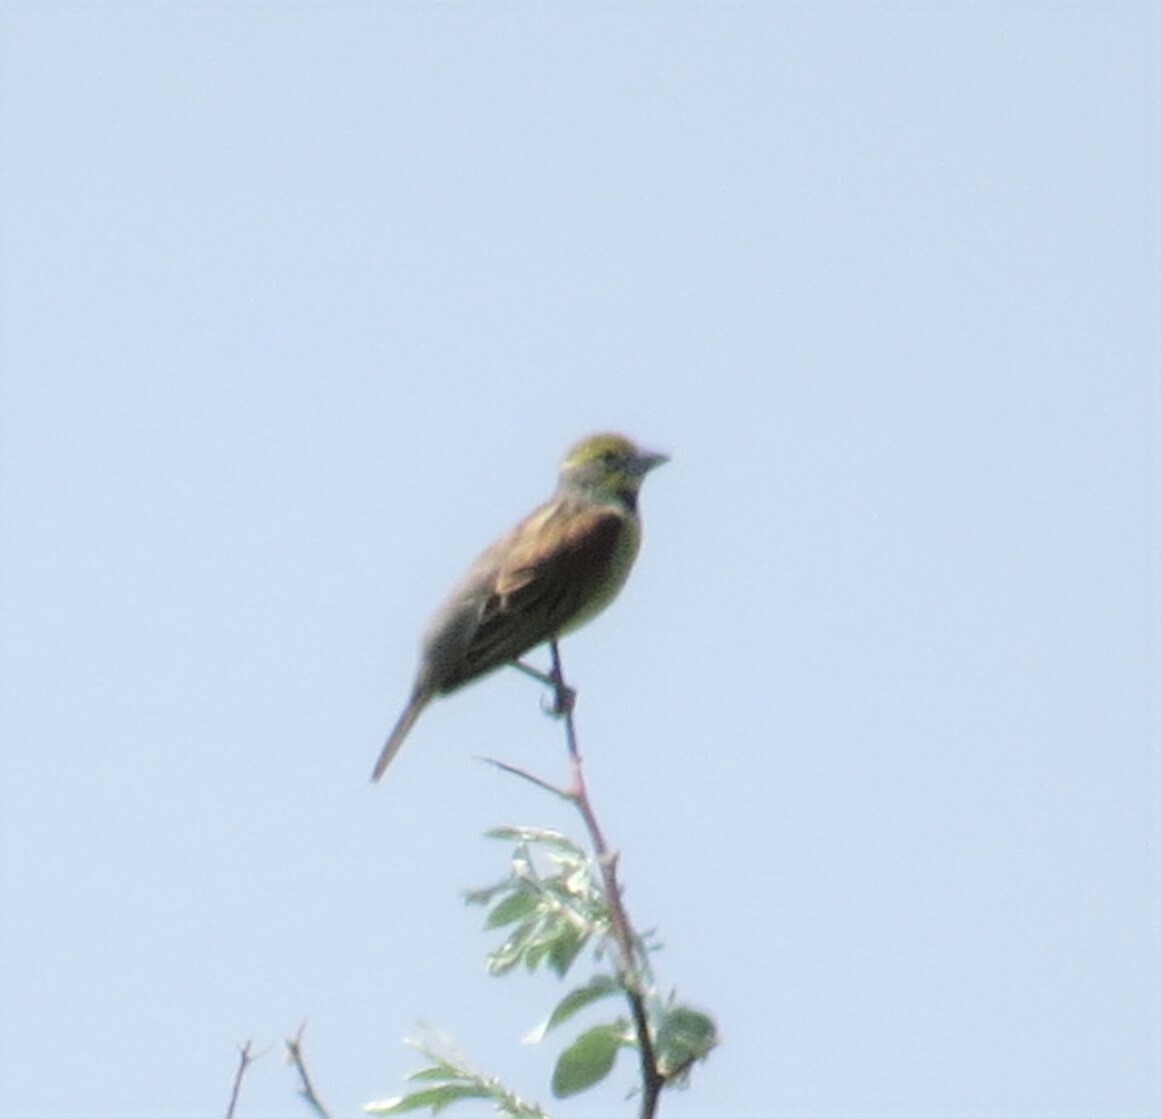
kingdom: Animalia
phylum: Chordata
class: Aves
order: Passeriformes
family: Cardinalidae
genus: Spiza
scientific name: Spiza americana
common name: Dickcissel
